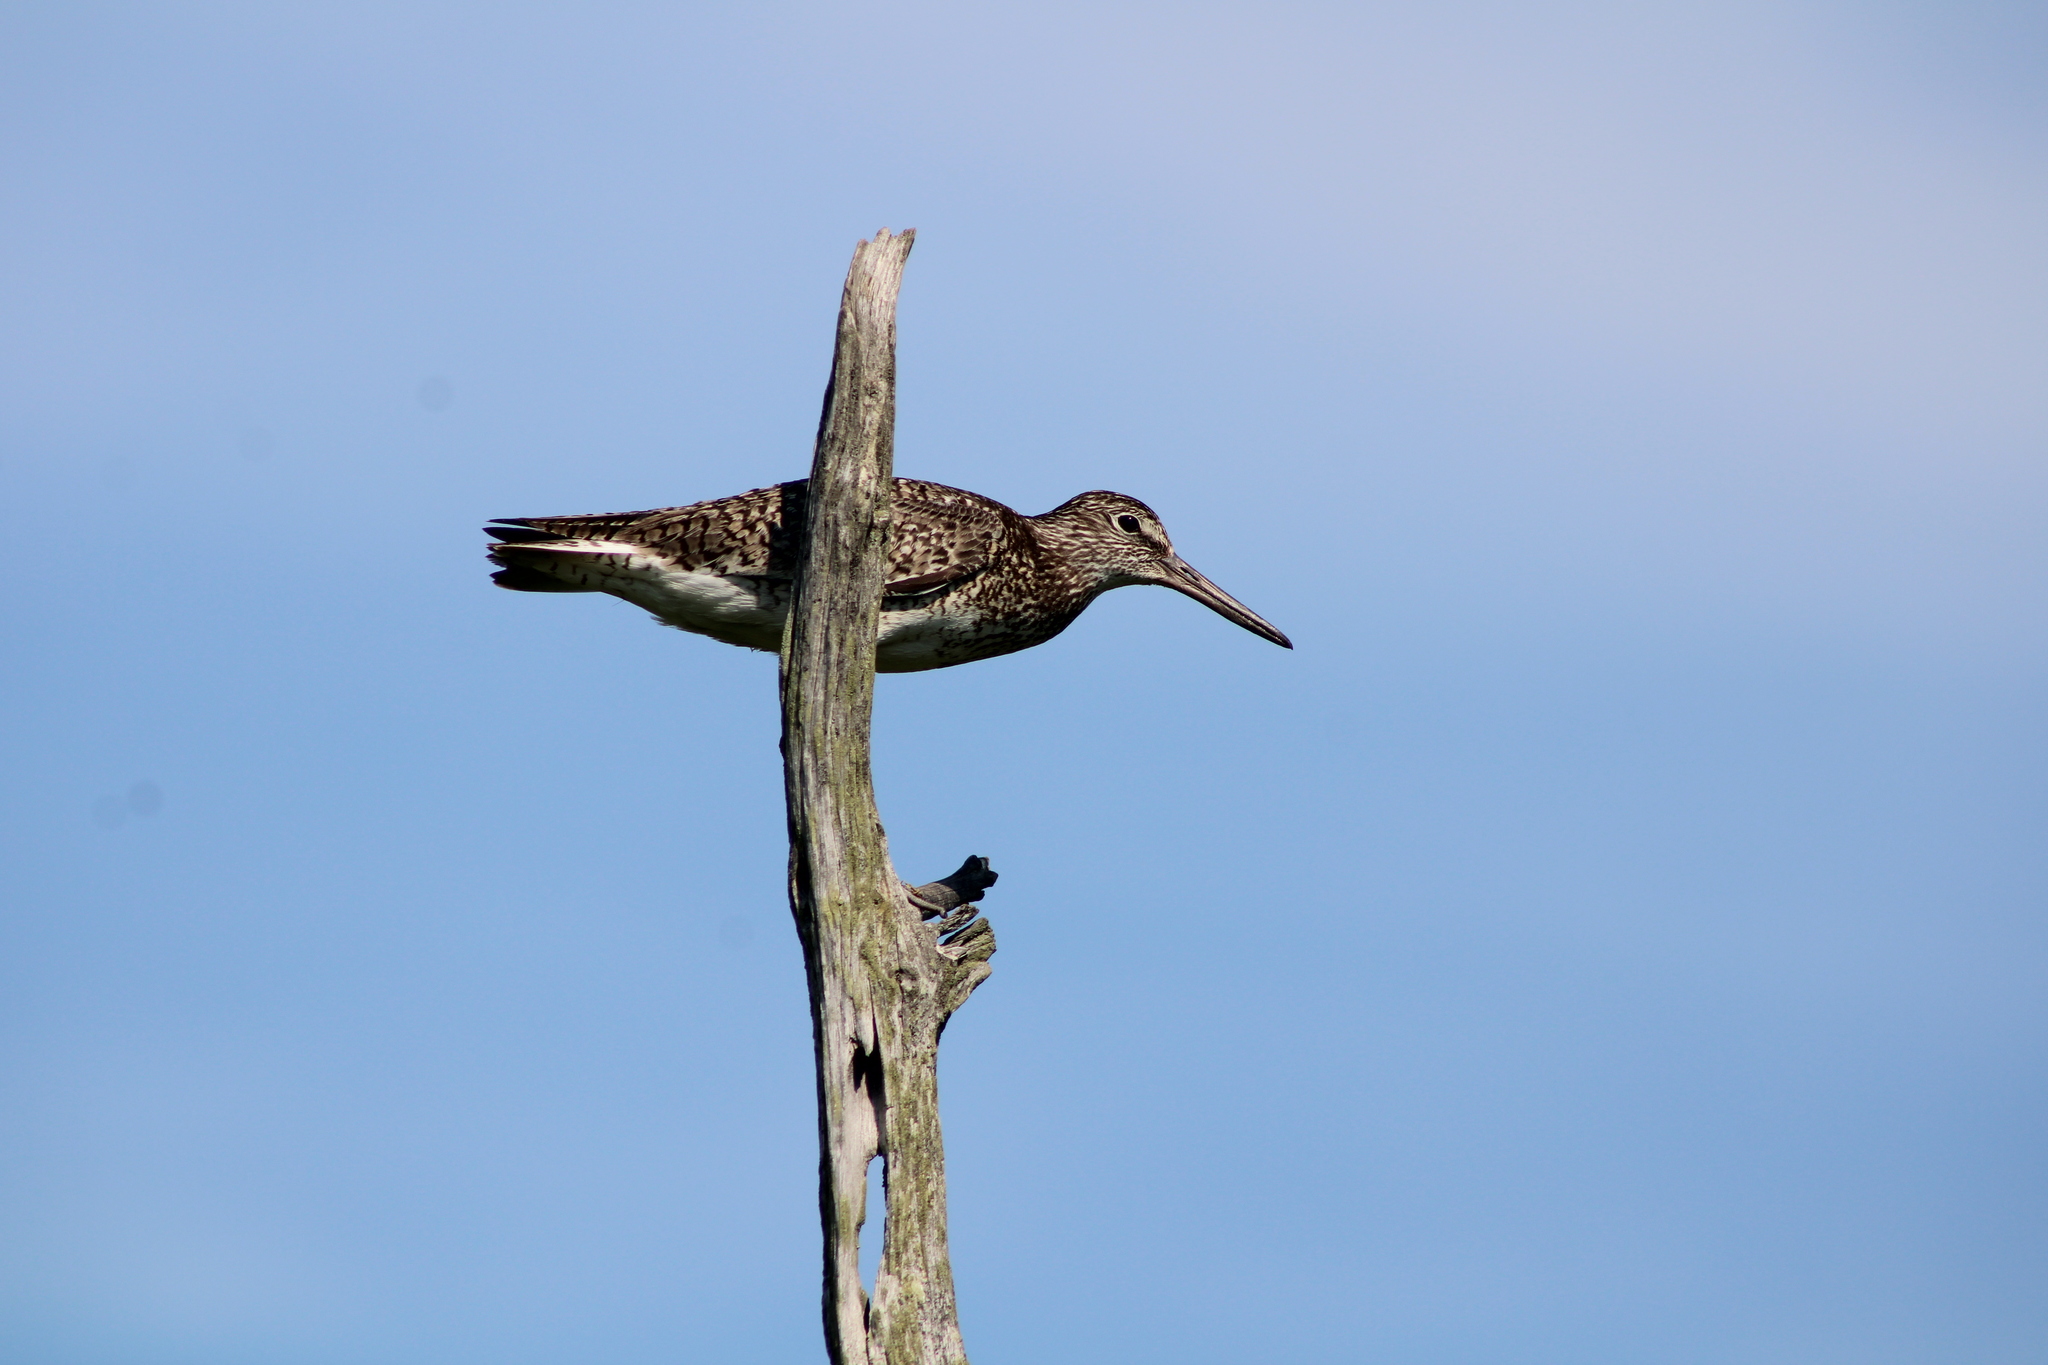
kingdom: Animalia
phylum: Chordata
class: Aves
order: Charadriiformes
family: Scolopacidae
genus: Tringa
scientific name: Tringa semipalmata
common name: Willet
